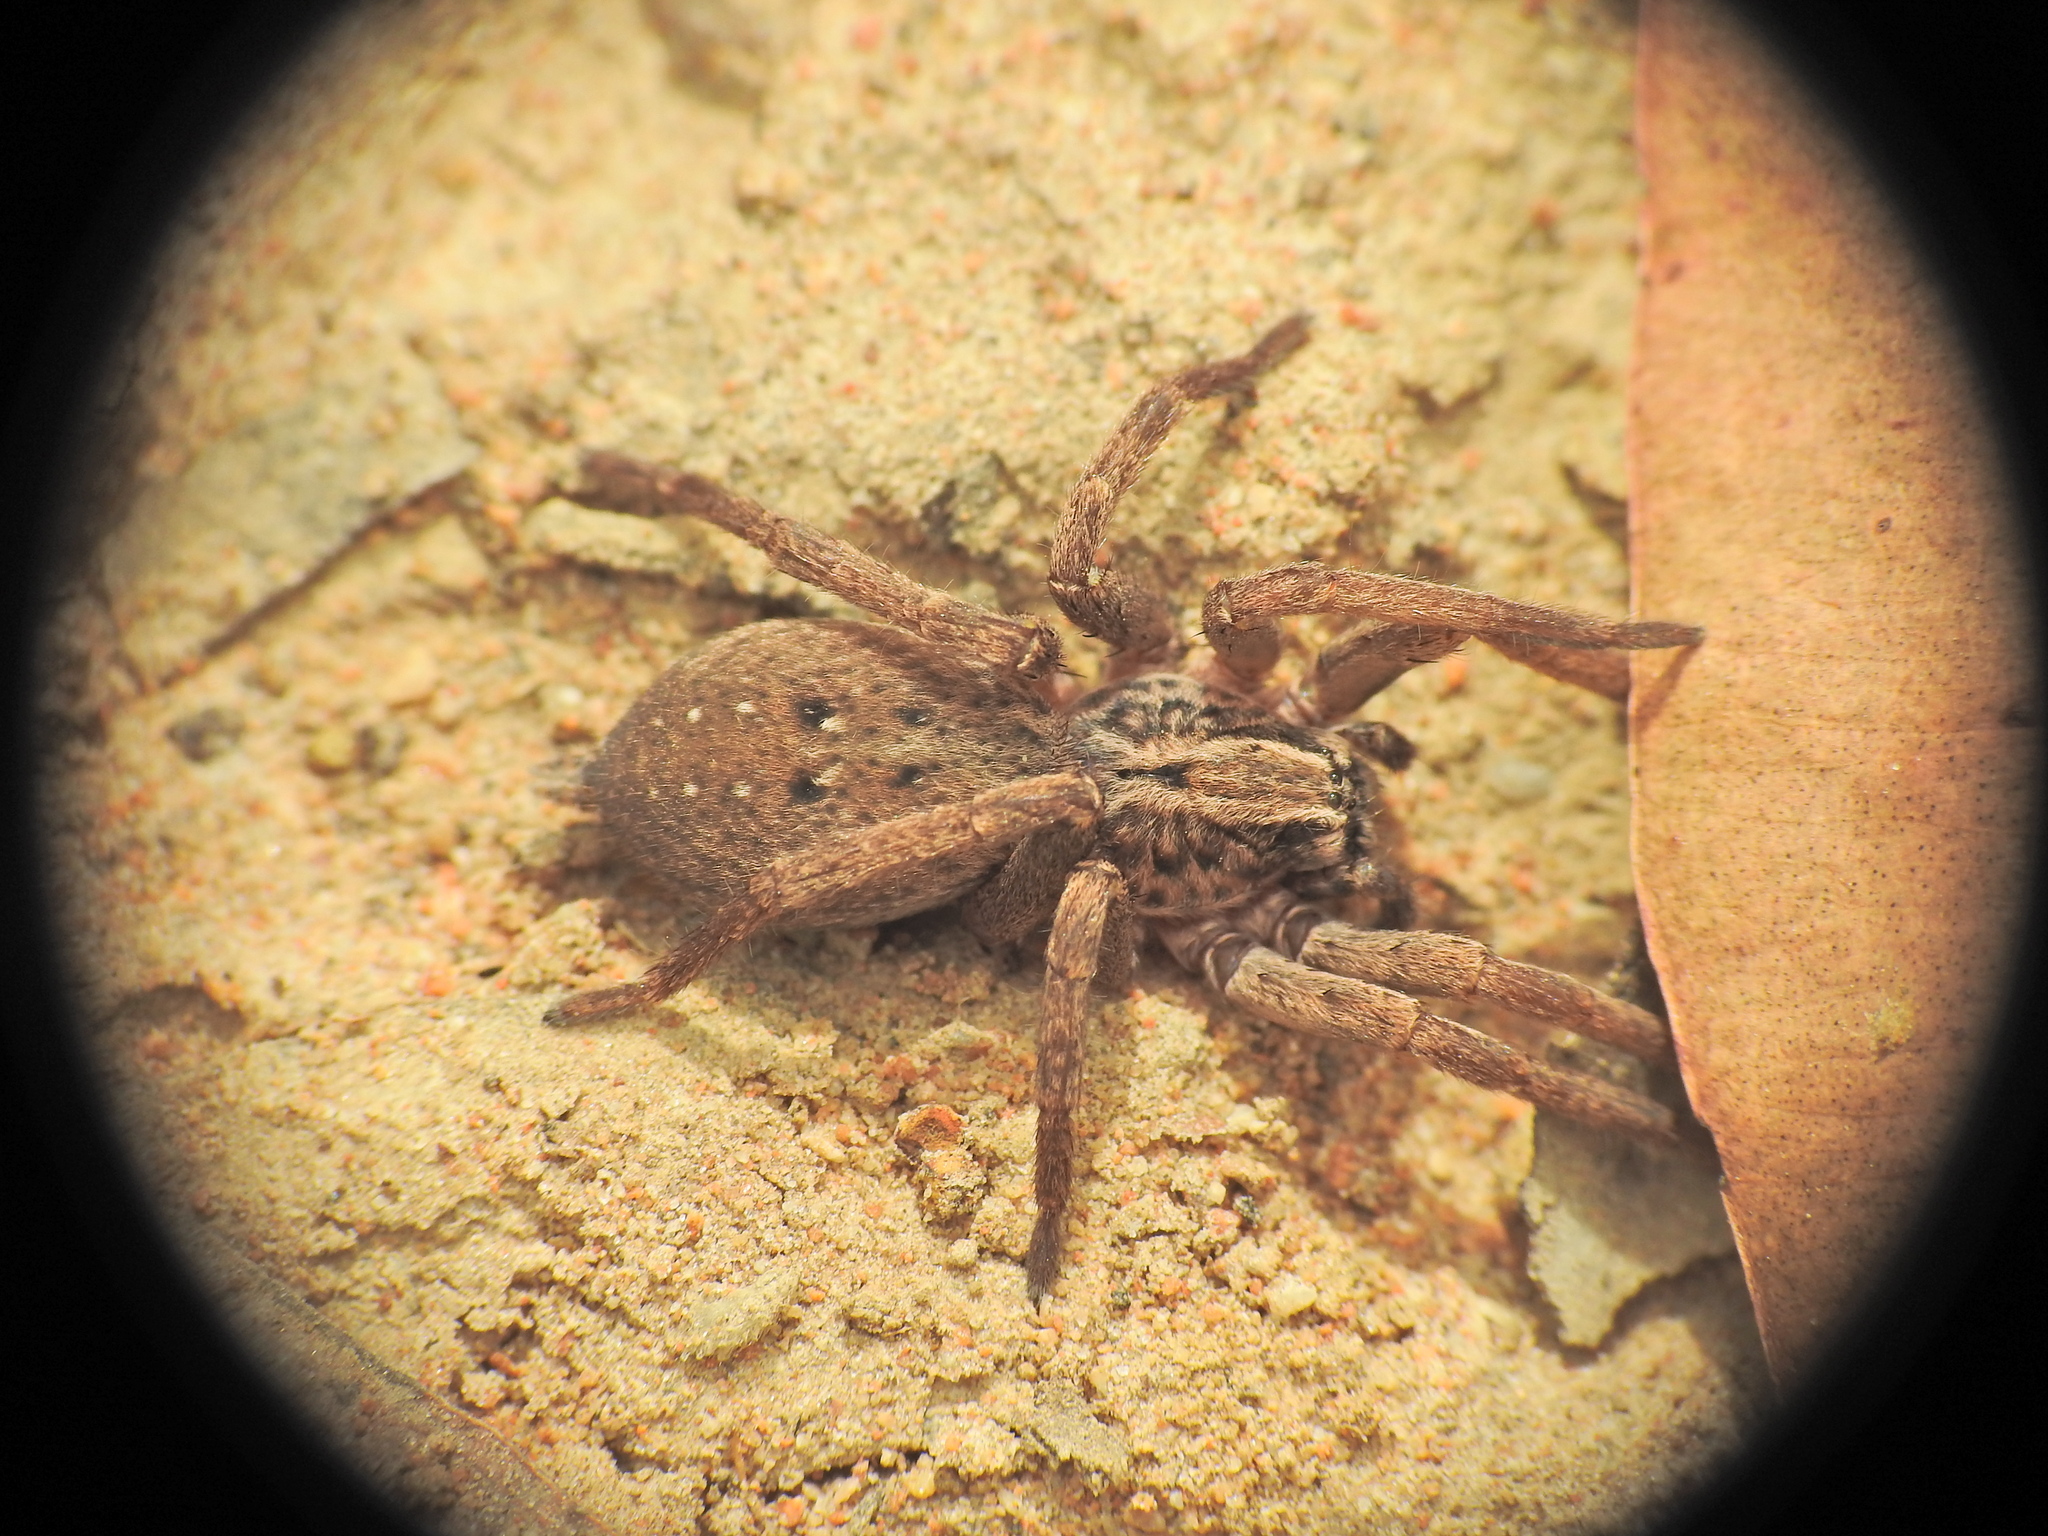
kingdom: Animalia
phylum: Arthropoda
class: Arachnida
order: Araneae
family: Miturgidae
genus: Mituliodon
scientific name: Mituliodon tarantulinus
